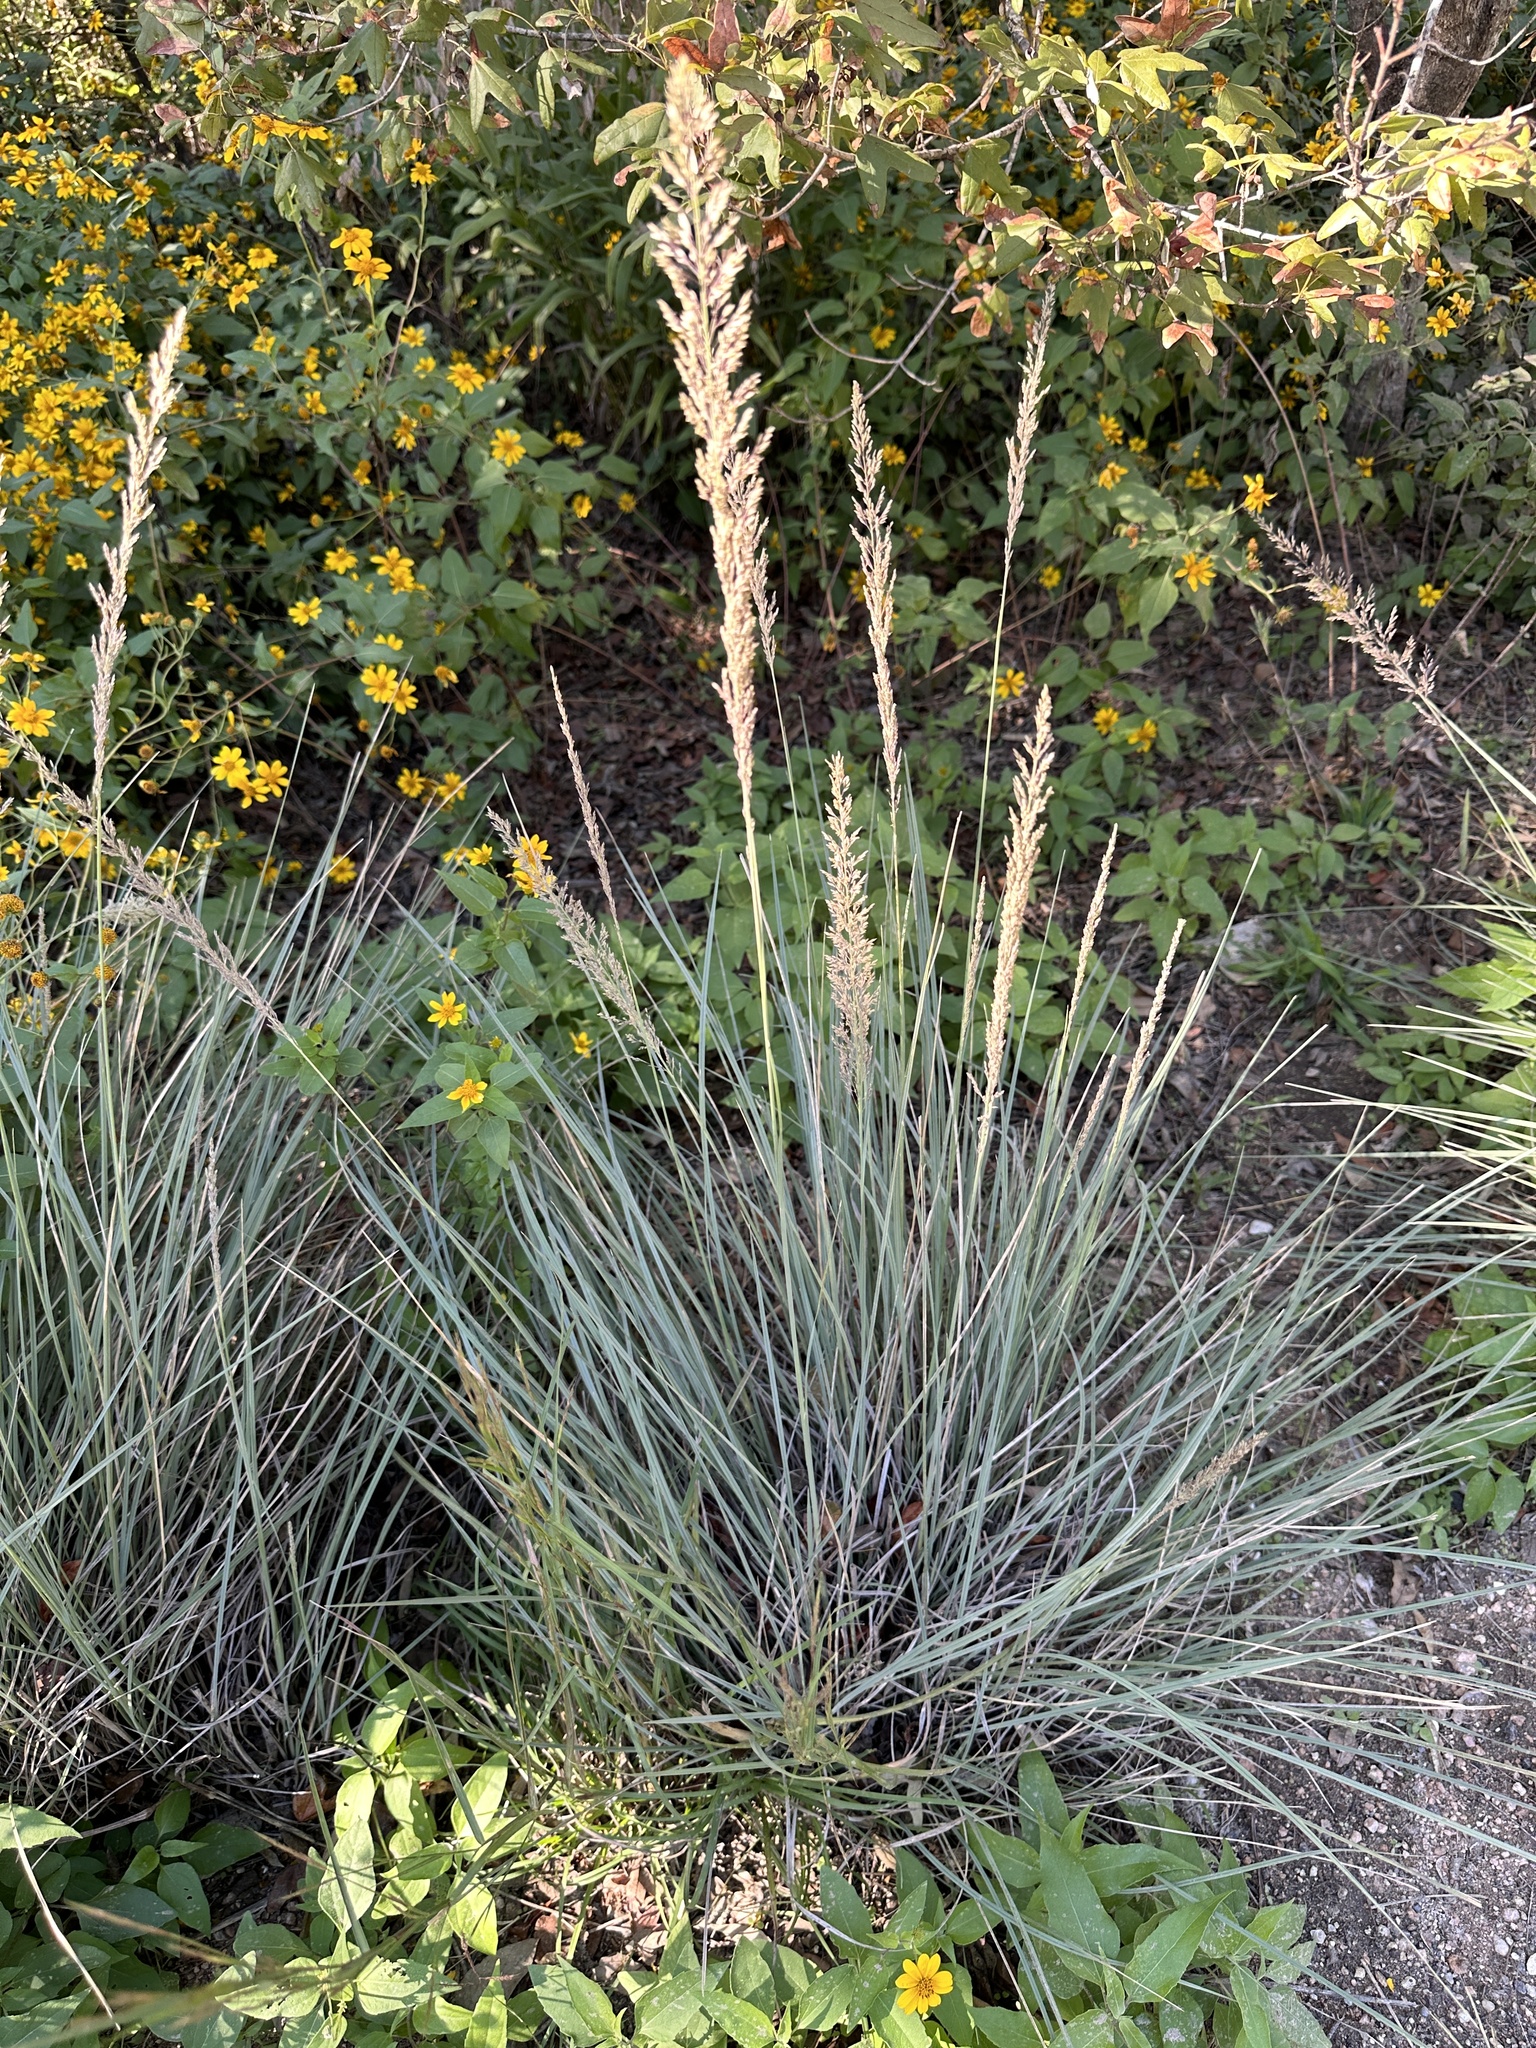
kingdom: Plantae
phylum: Tracheophyta
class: Liliopsida
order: Poales
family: Poaceae
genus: Muhlenbergia
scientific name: Muhlenbergia lindheimeri
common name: Lindheimer's muhly
